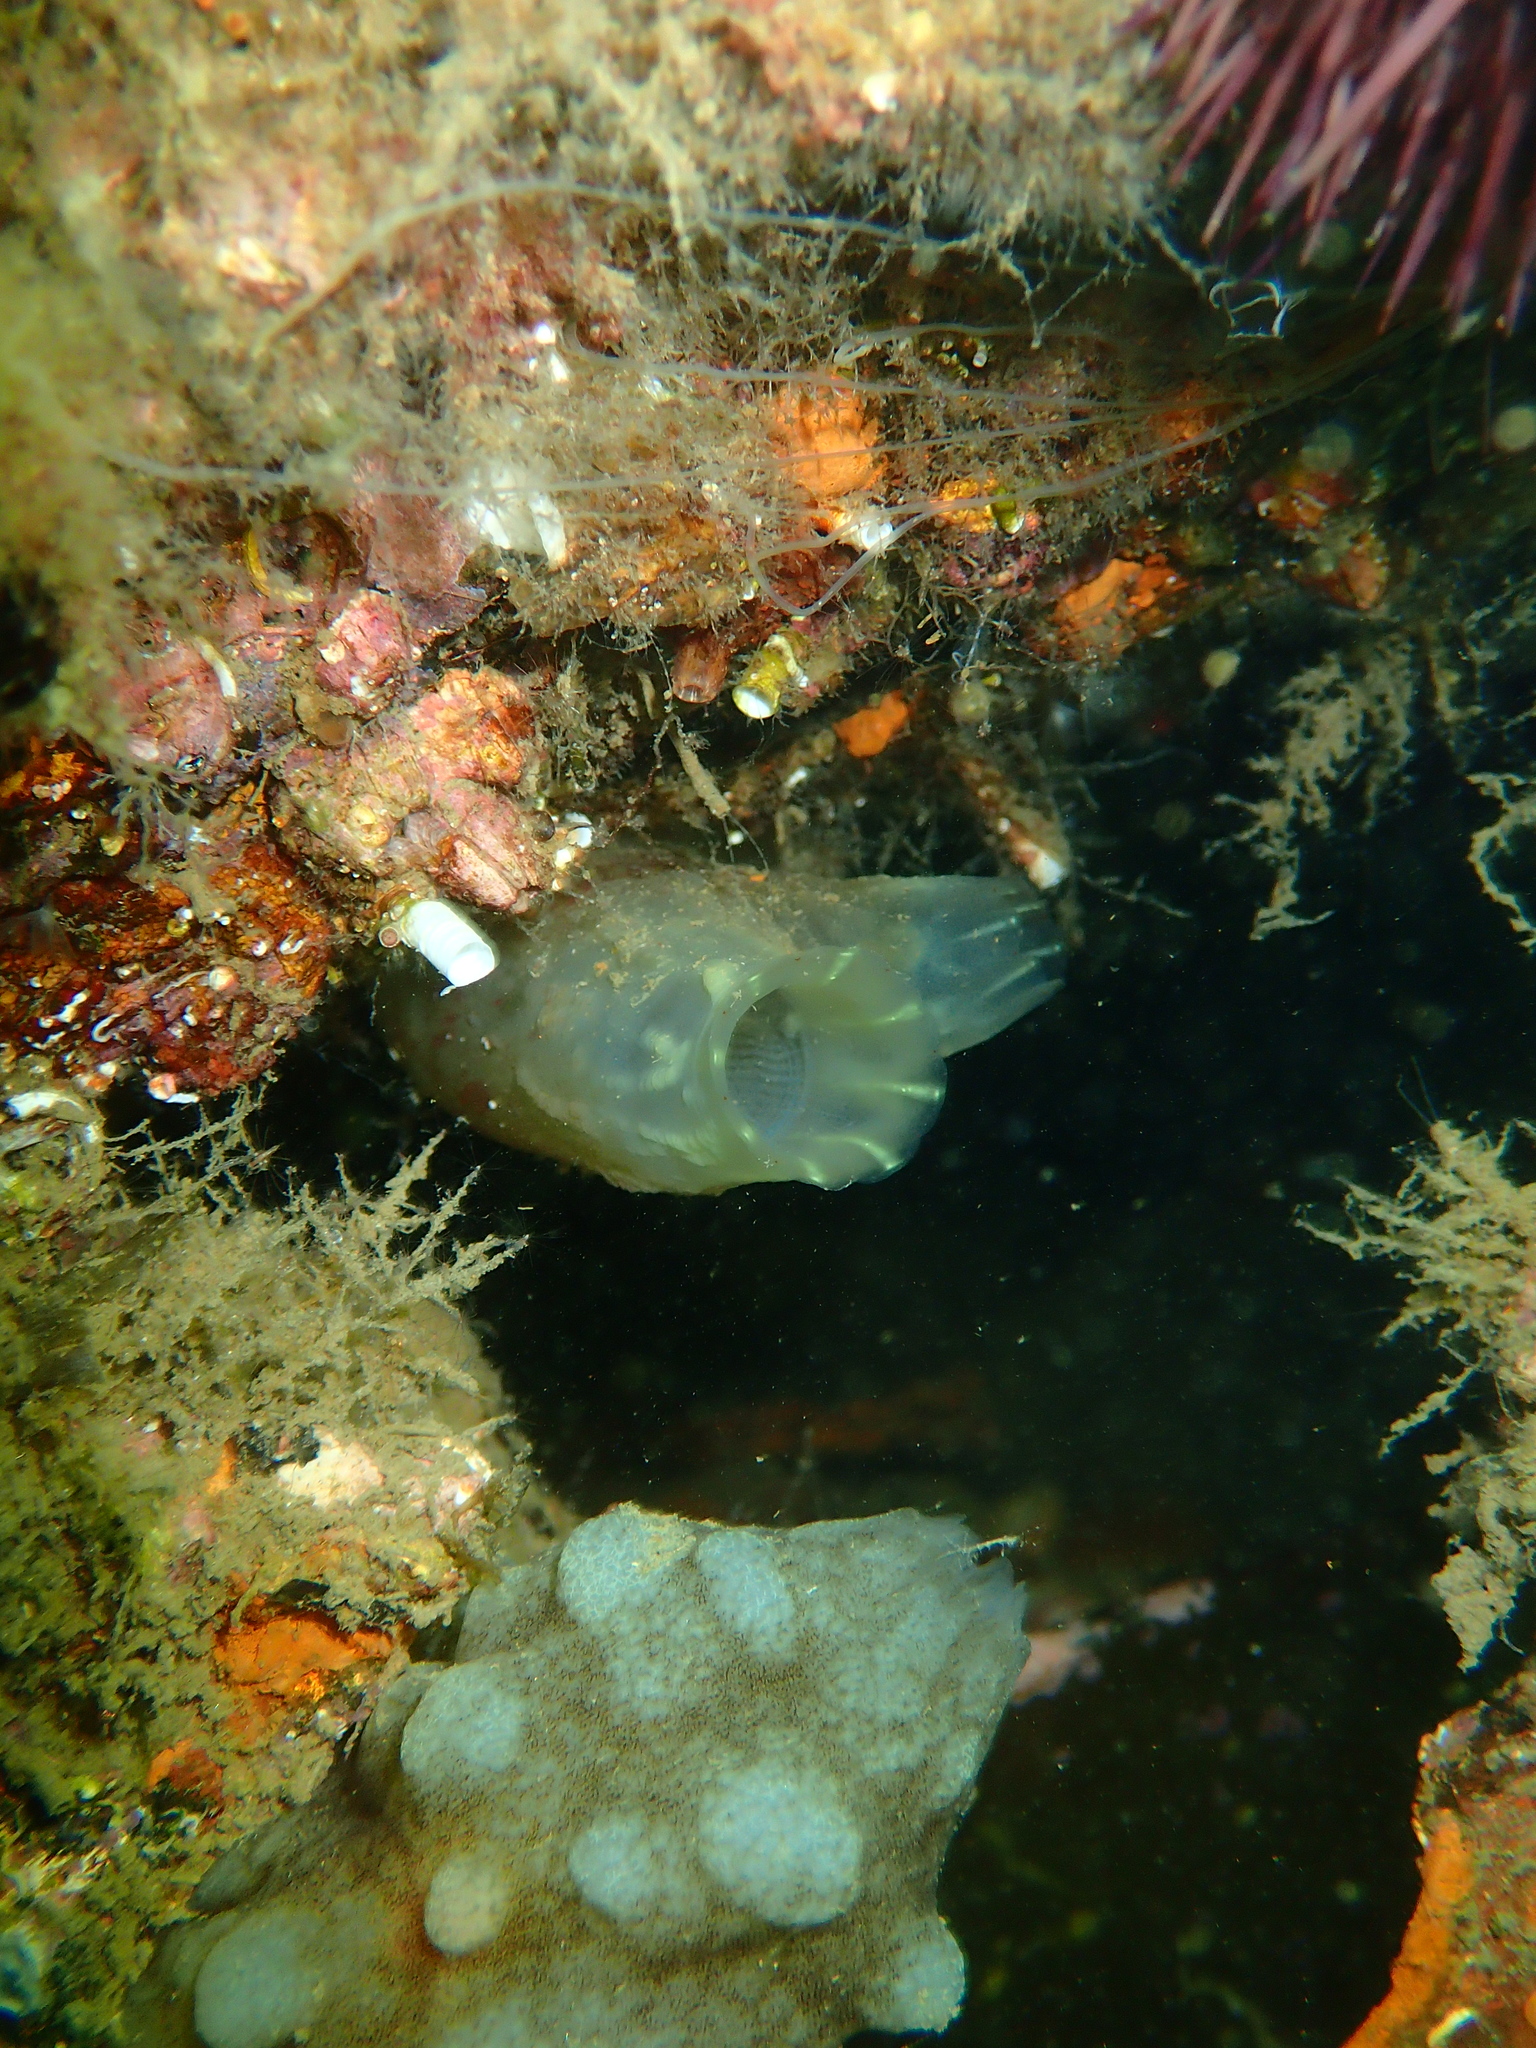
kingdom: Animalia
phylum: Chordata
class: Ascidiacea
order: Phlebobranchia
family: Cionidae
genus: Ciona
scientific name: Ciona robusta
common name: Tunicate
